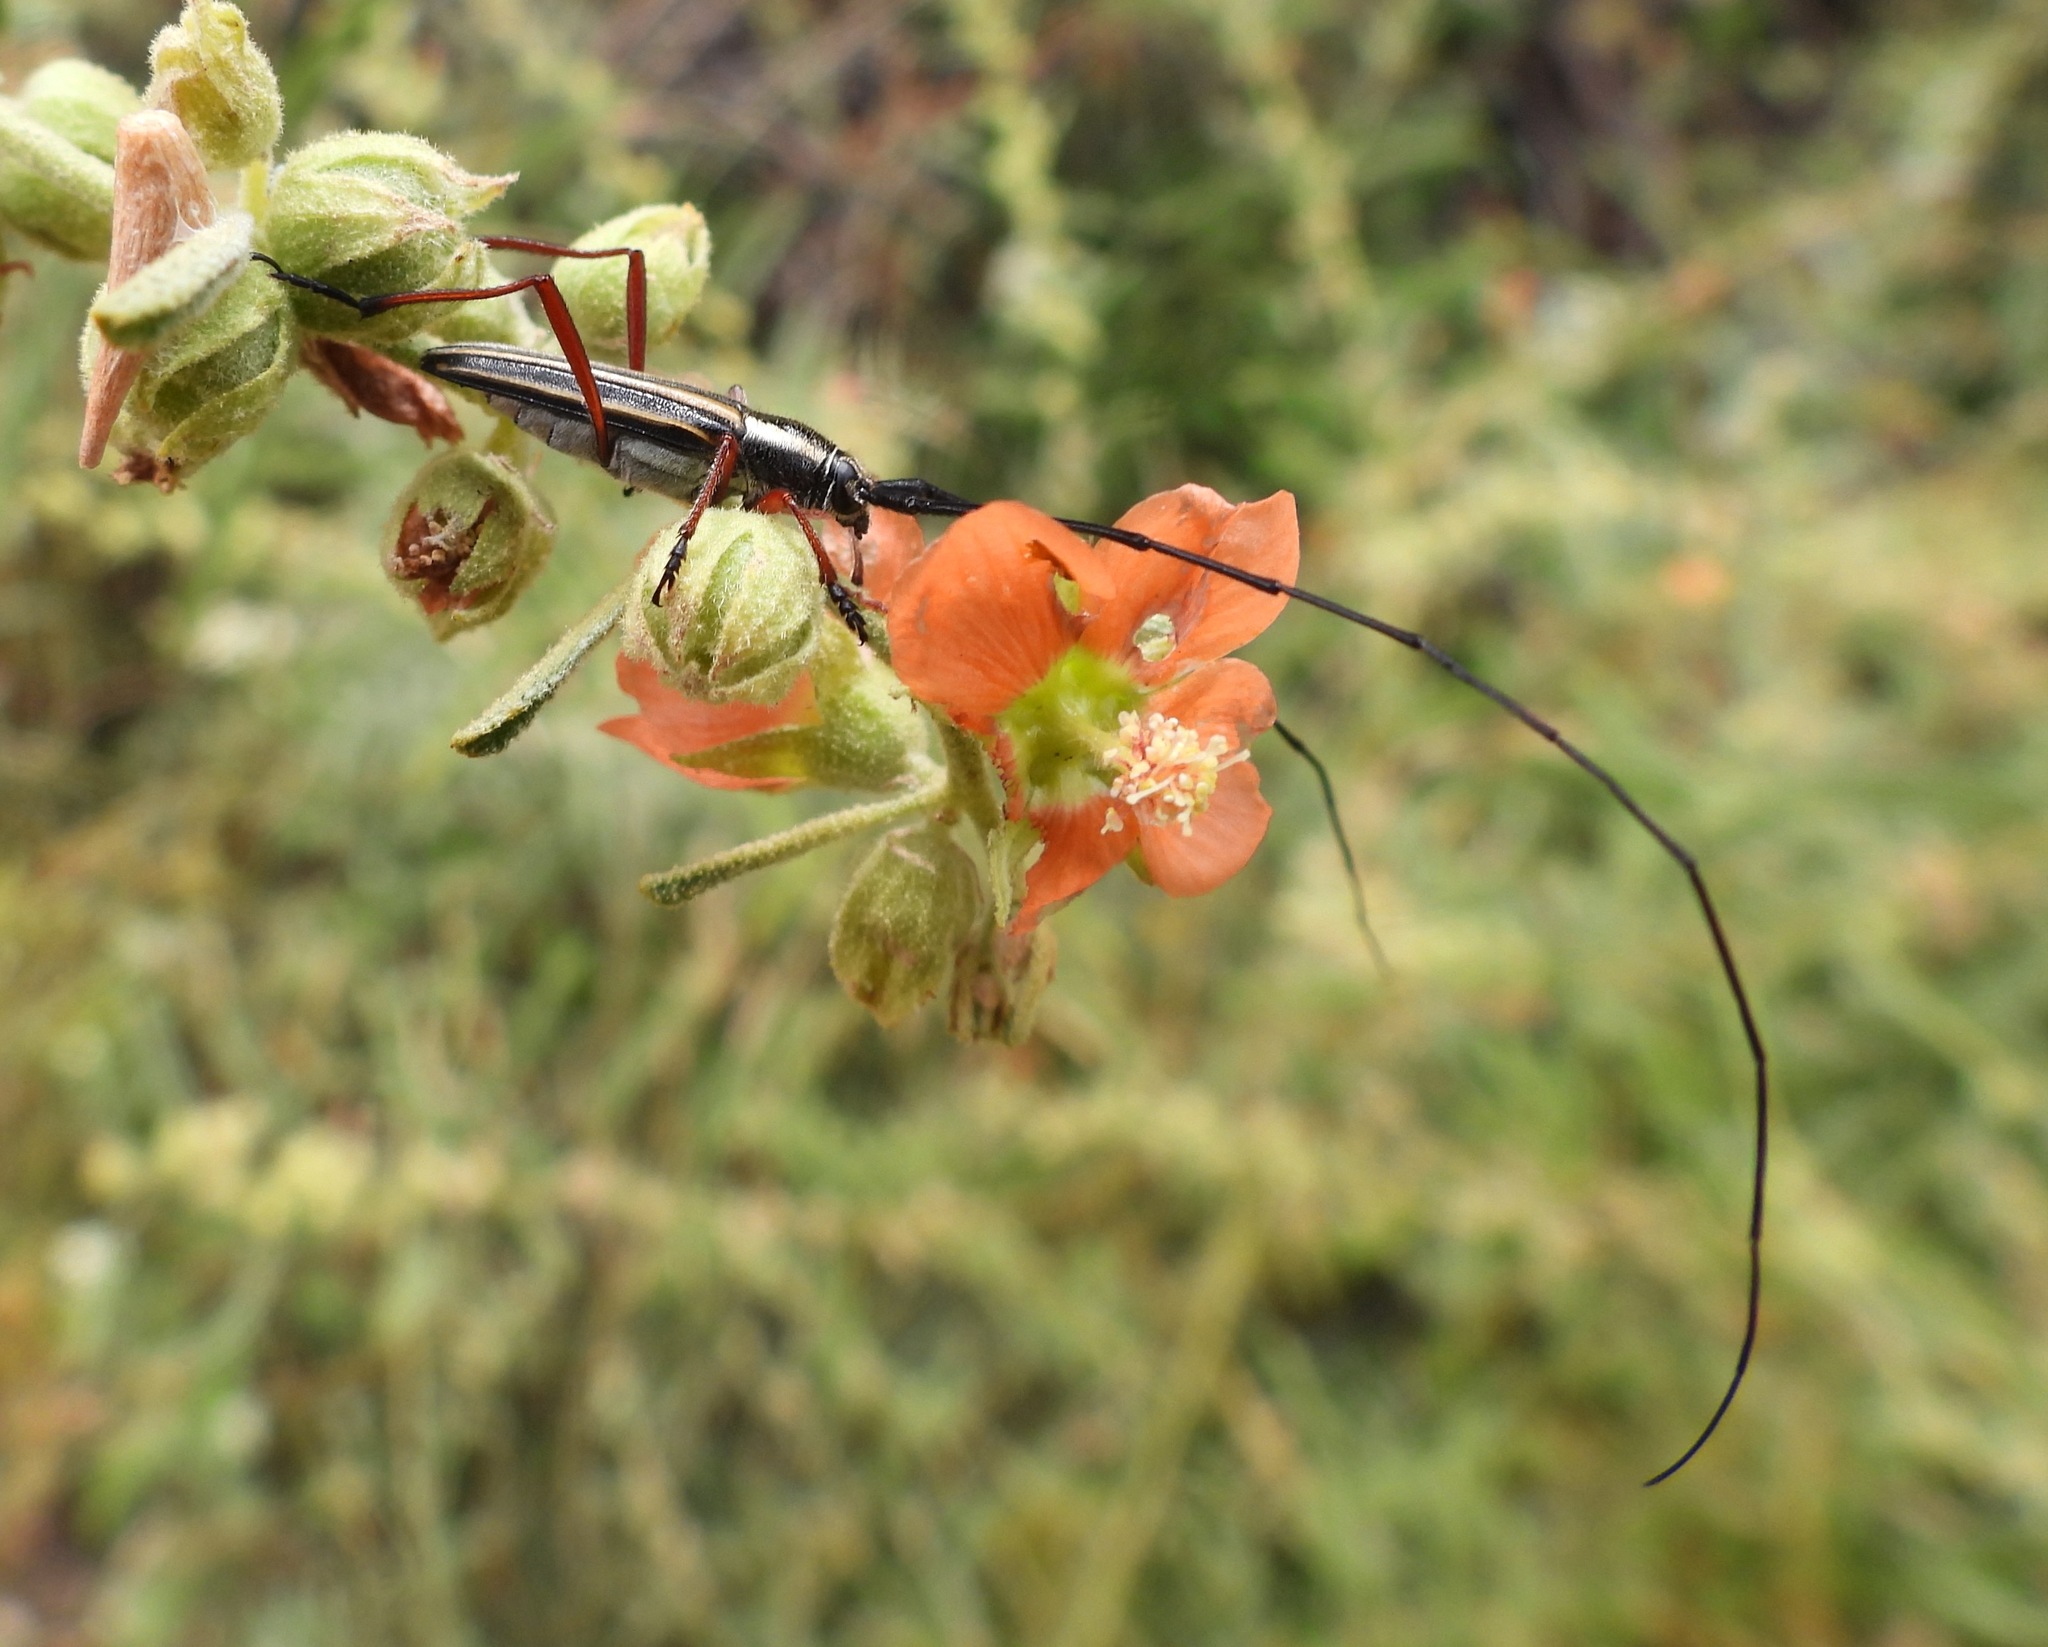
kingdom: Animalia
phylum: Arthropoda
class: Insecta
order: Coleoptera
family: Cerambycidae
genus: Sphaenothecus
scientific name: Sphaenothecus bilineatus
